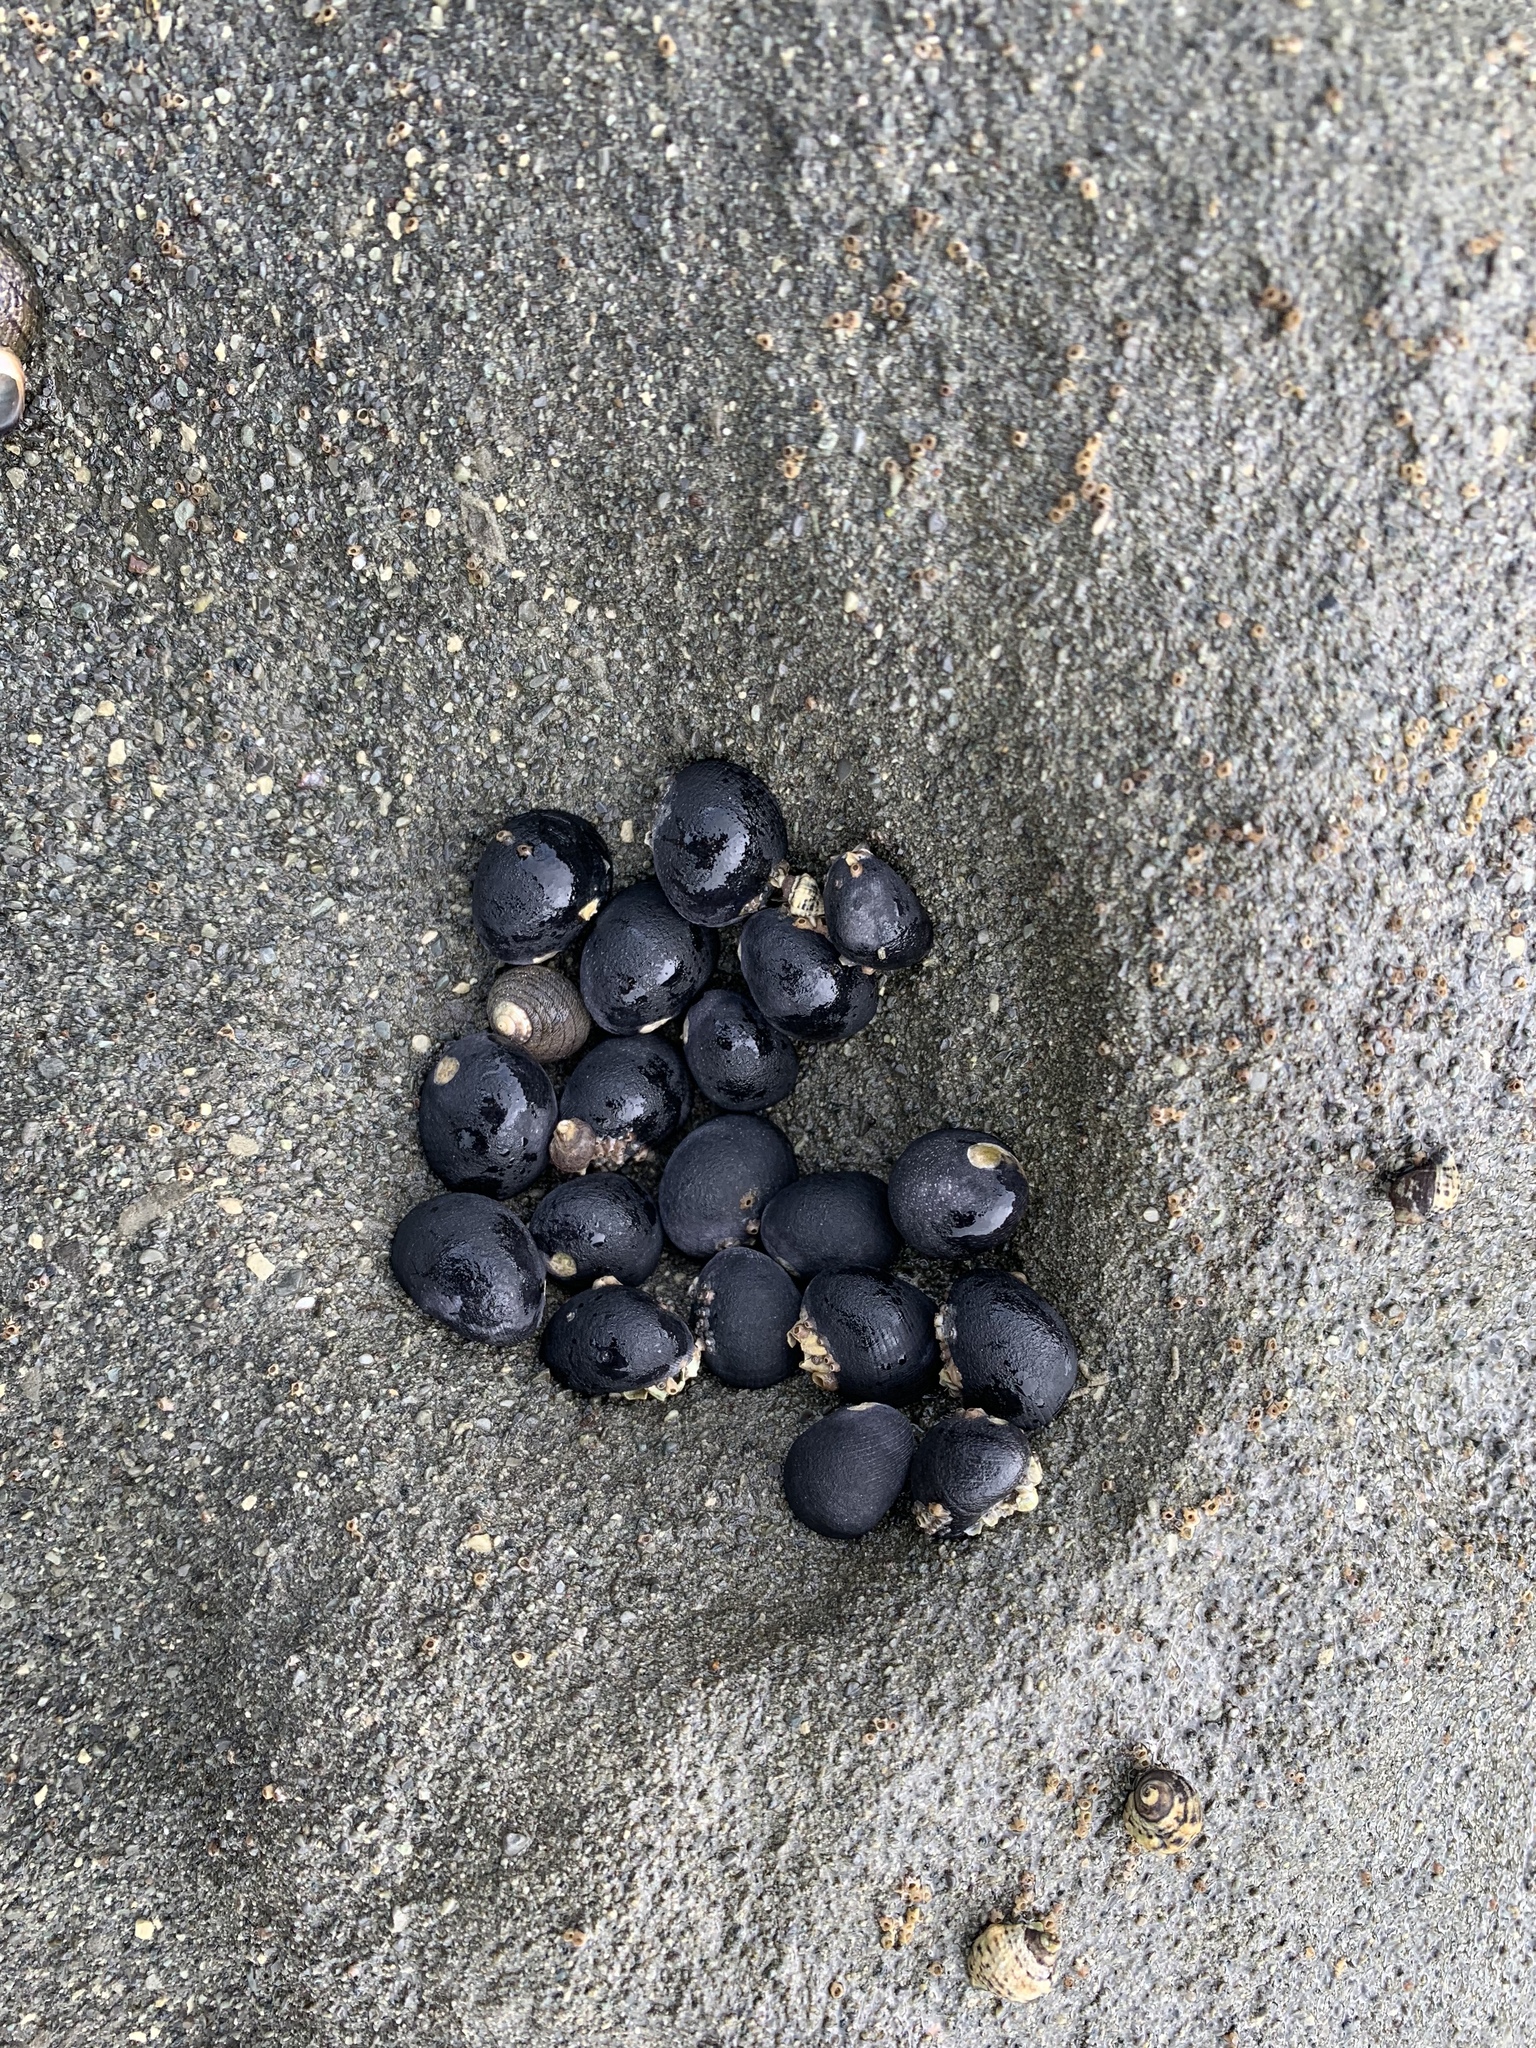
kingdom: Animalia
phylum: Mollusca
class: Gastropoda
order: Cycloneritida
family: Neritidae
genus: Nerita
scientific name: Nerita melanotragus
